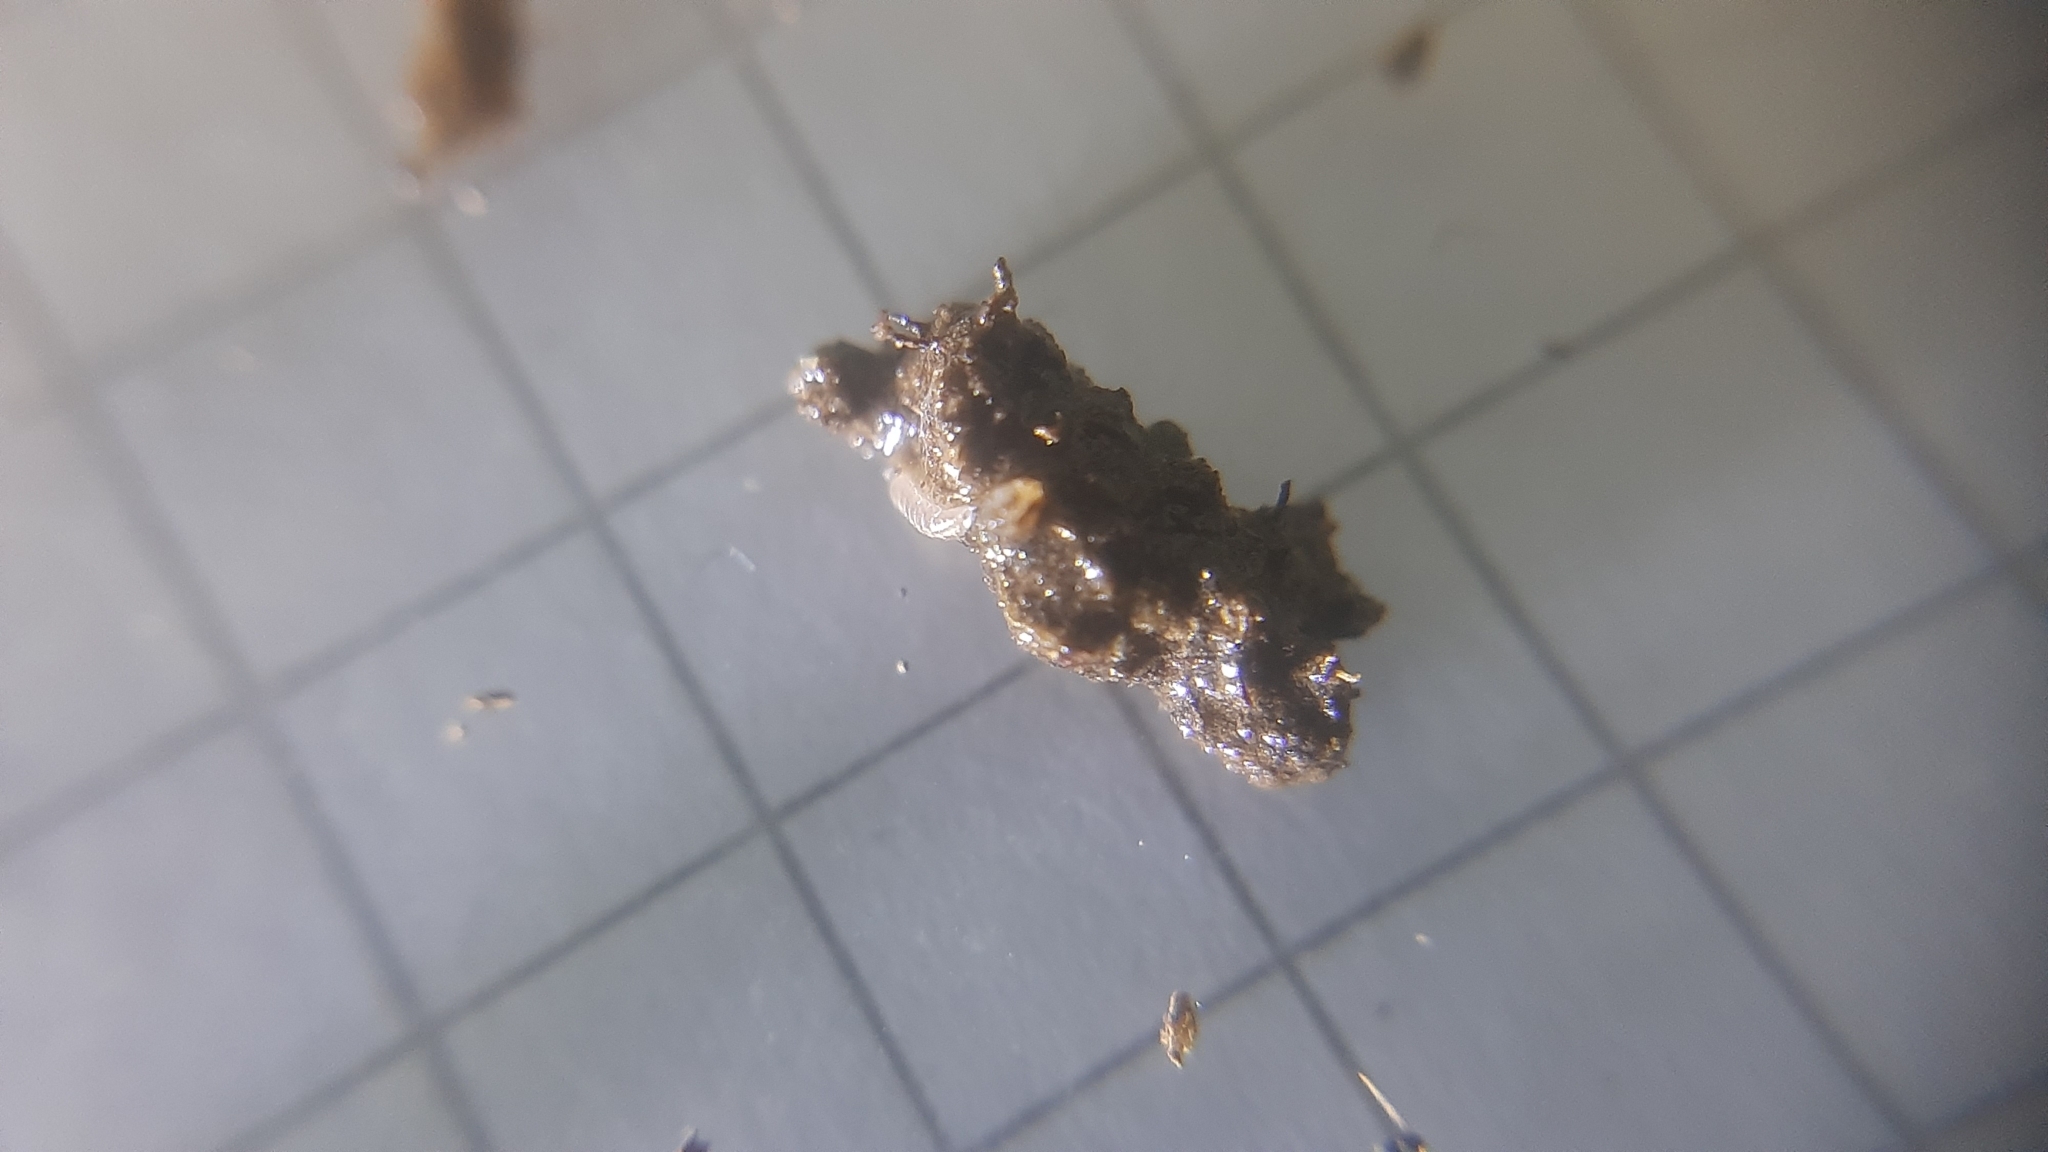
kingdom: Animalia
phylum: Arthropoda
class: Malacostraca
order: Isopoda
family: Trichoniscidae
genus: Trichoniscus
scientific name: Trichoniscus pygmaeus
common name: Isopod
